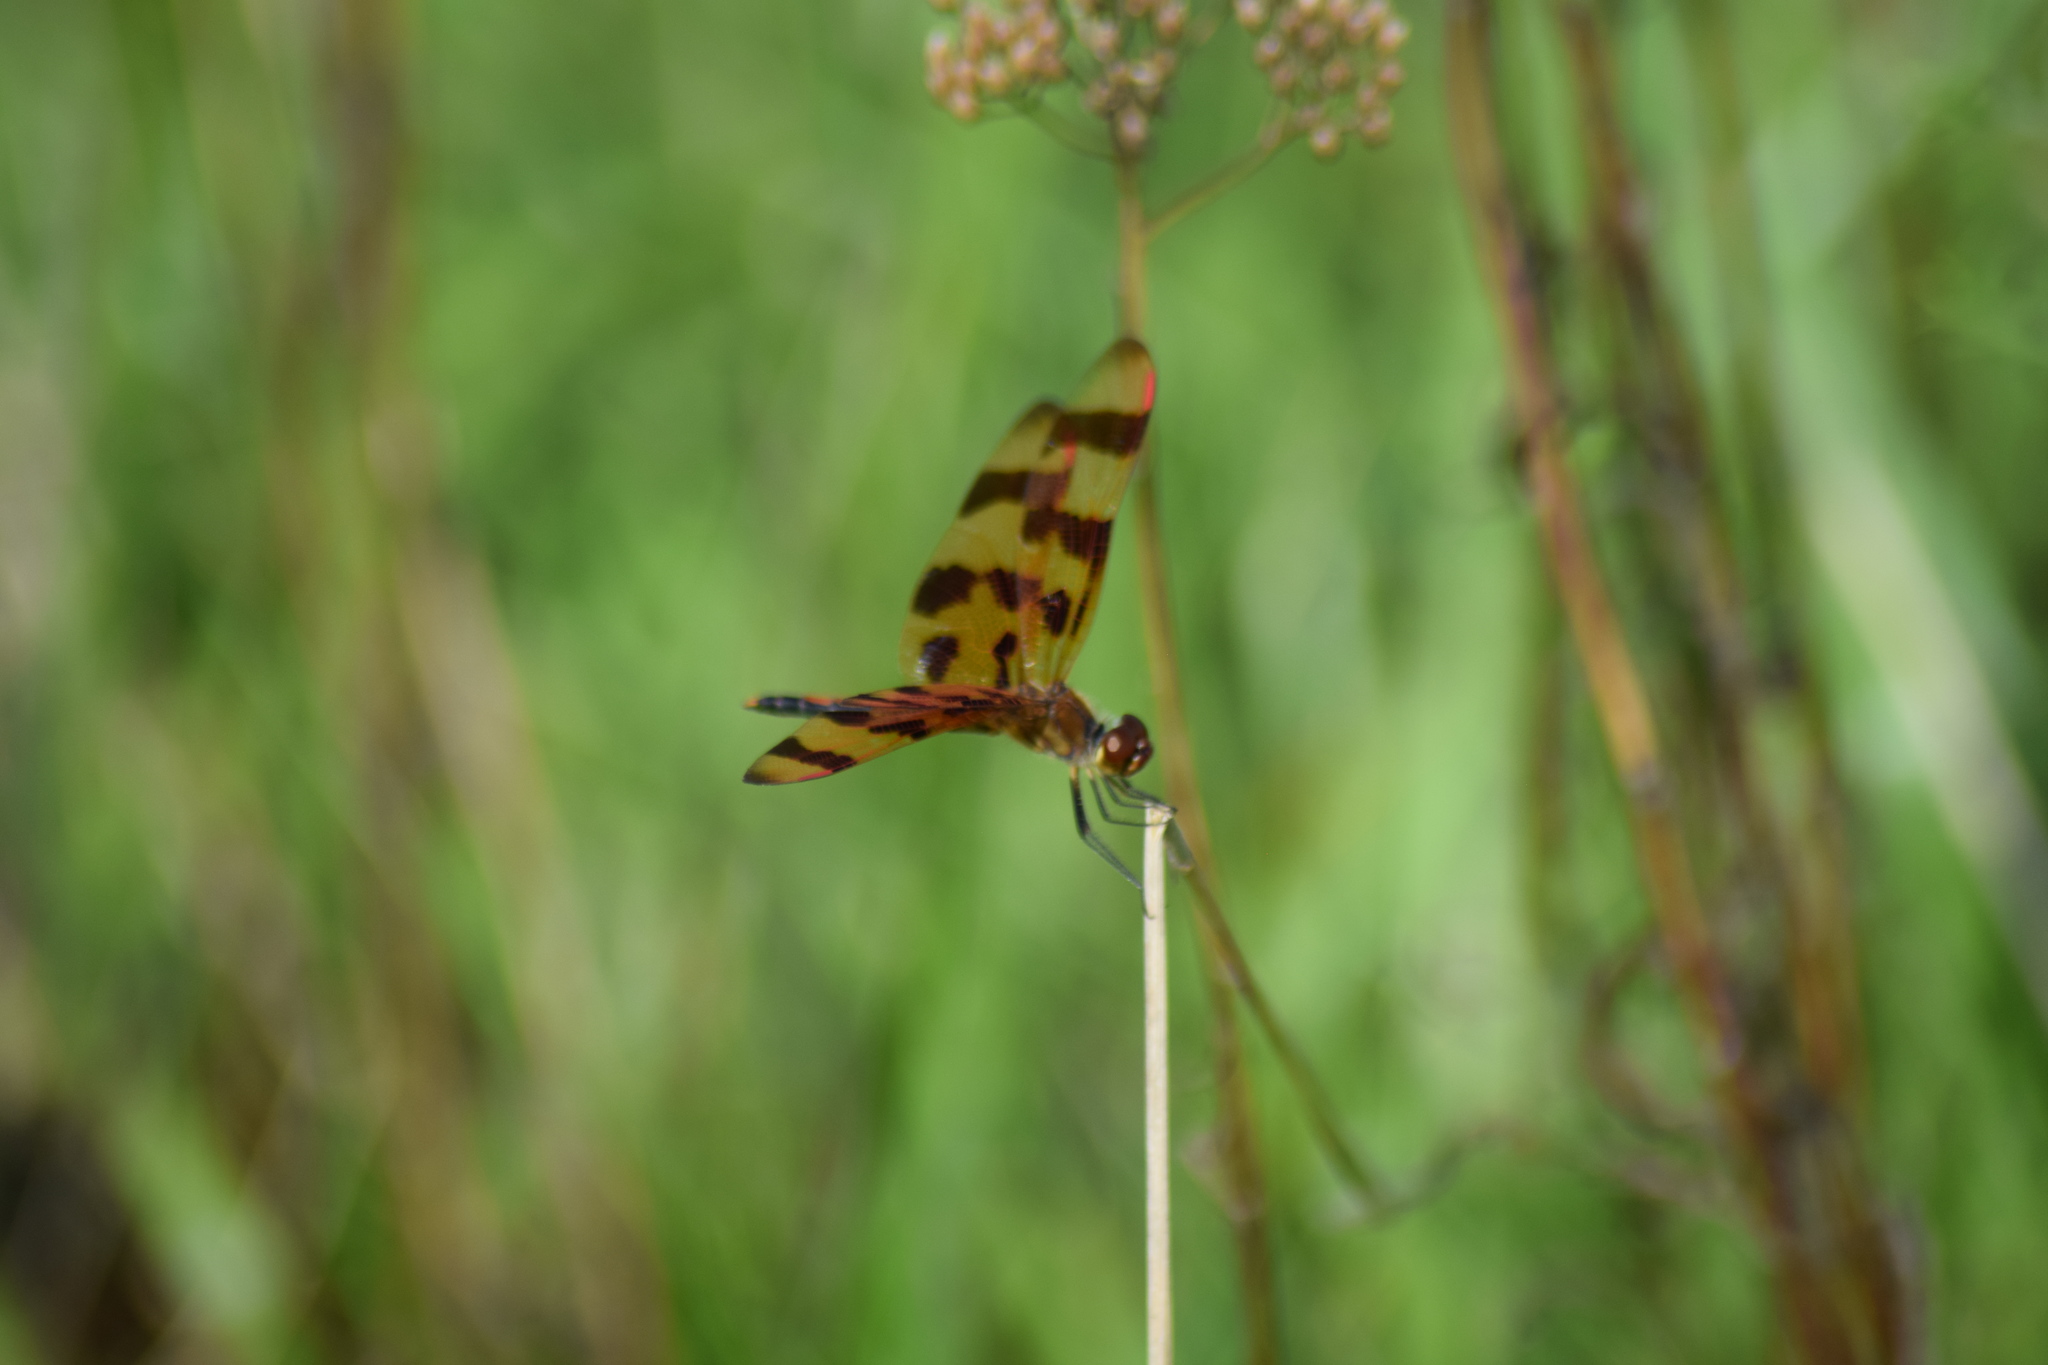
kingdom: Animalia
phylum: Arthropoda
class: Insecta
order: Odonata
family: Libellulidae
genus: Celithemis
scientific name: Celithemis eponina
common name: Halloween pennant
